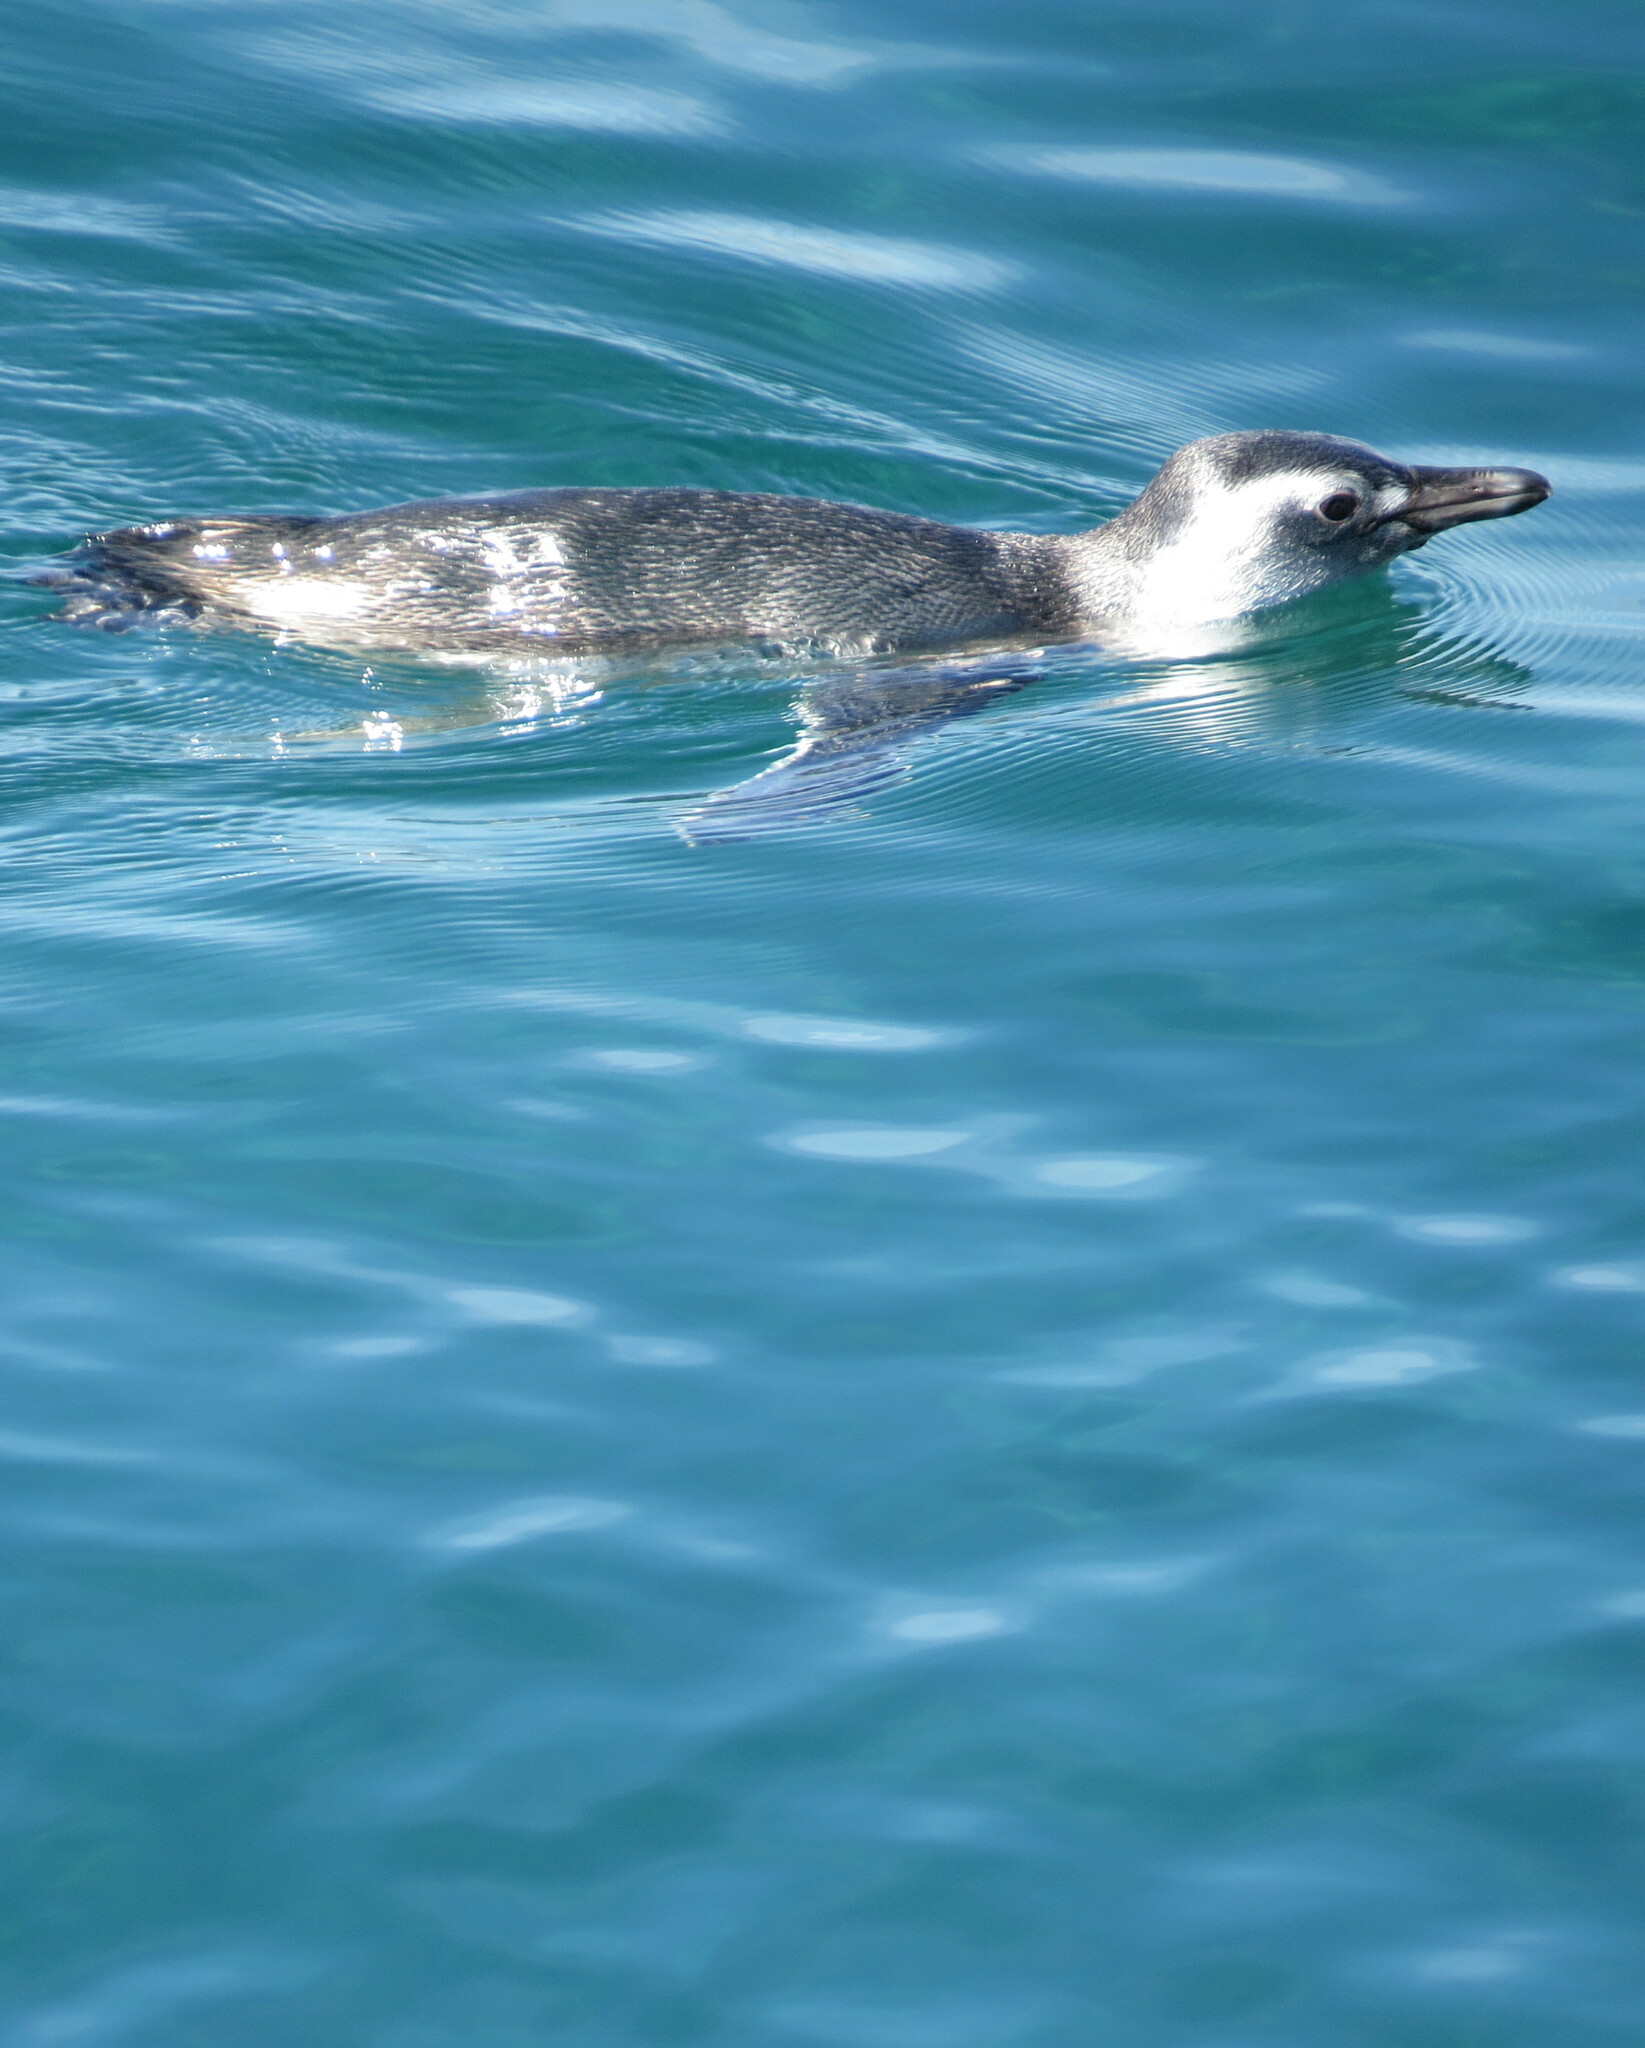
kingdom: Animalia
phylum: Chordata
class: Aves
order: Sphenisciformes
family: Spheniscidae
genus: Spheniscus
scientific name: Spheniscus magellanicus
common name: Magellanic penguin
